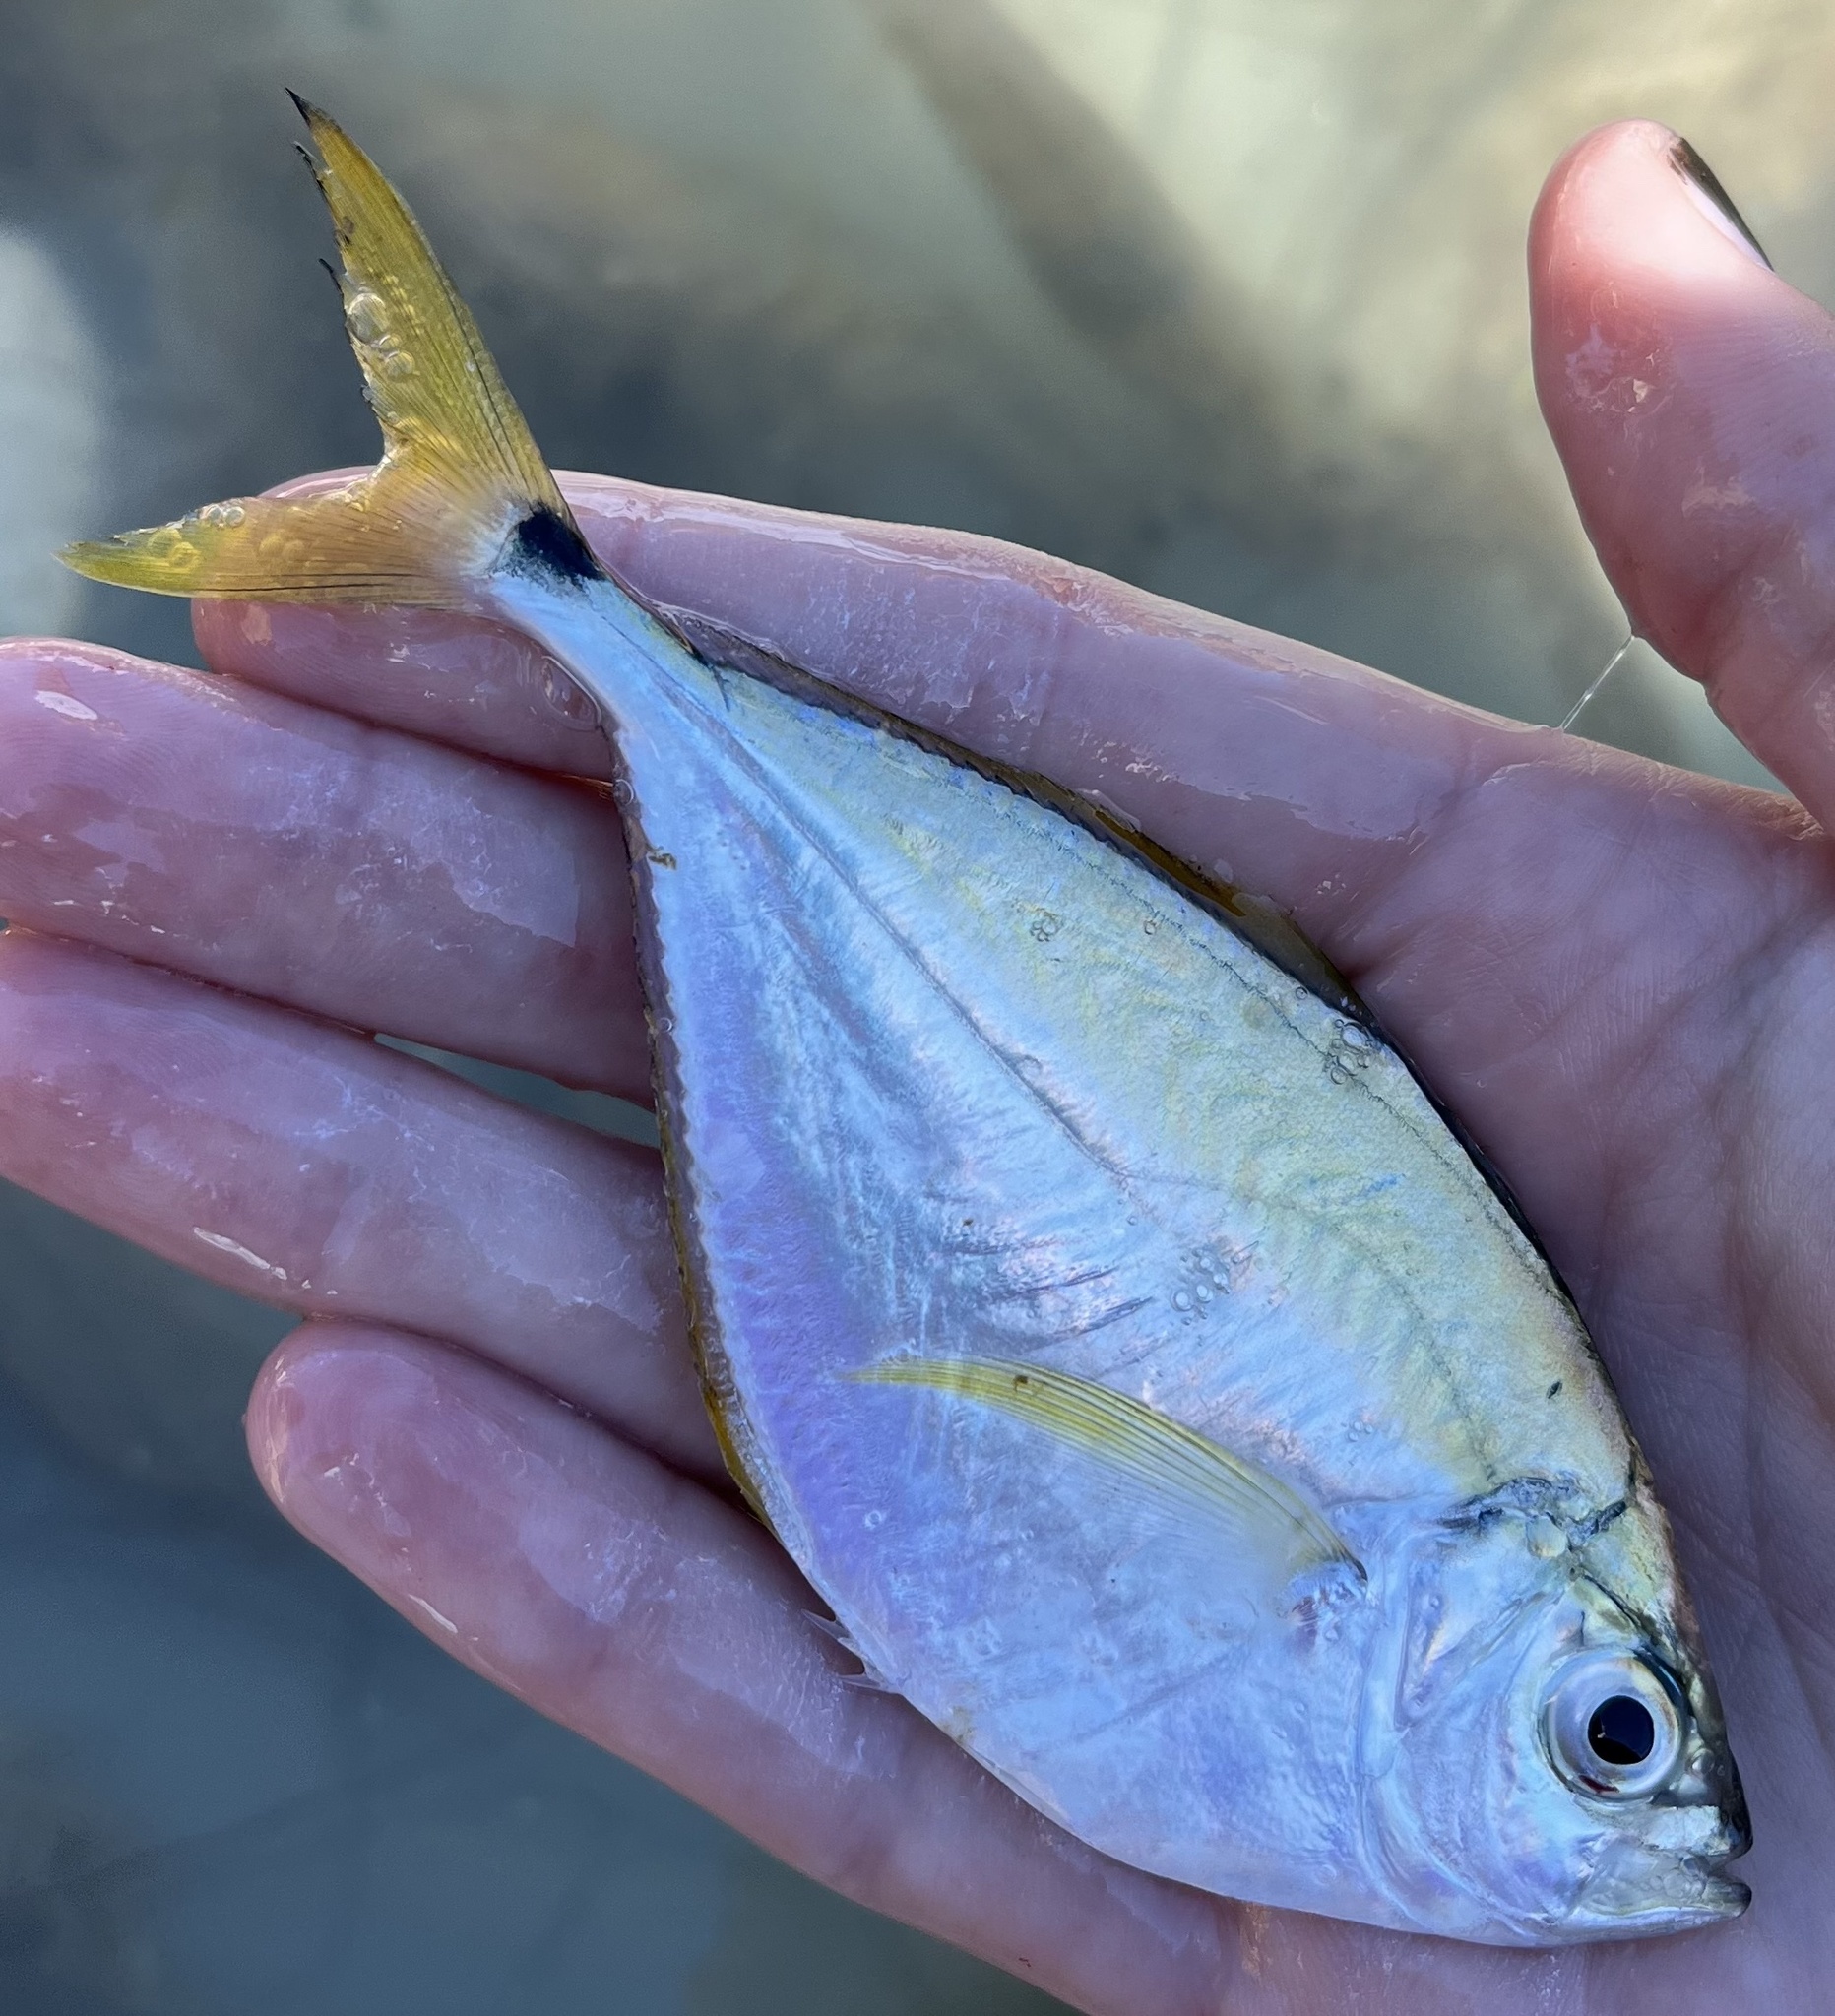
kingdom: Animalia
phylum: Chordata
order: Perciformes
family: Carangidae
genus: Chloroscombrus
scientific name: Chloroscombrus chrysurus
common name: Bumper
